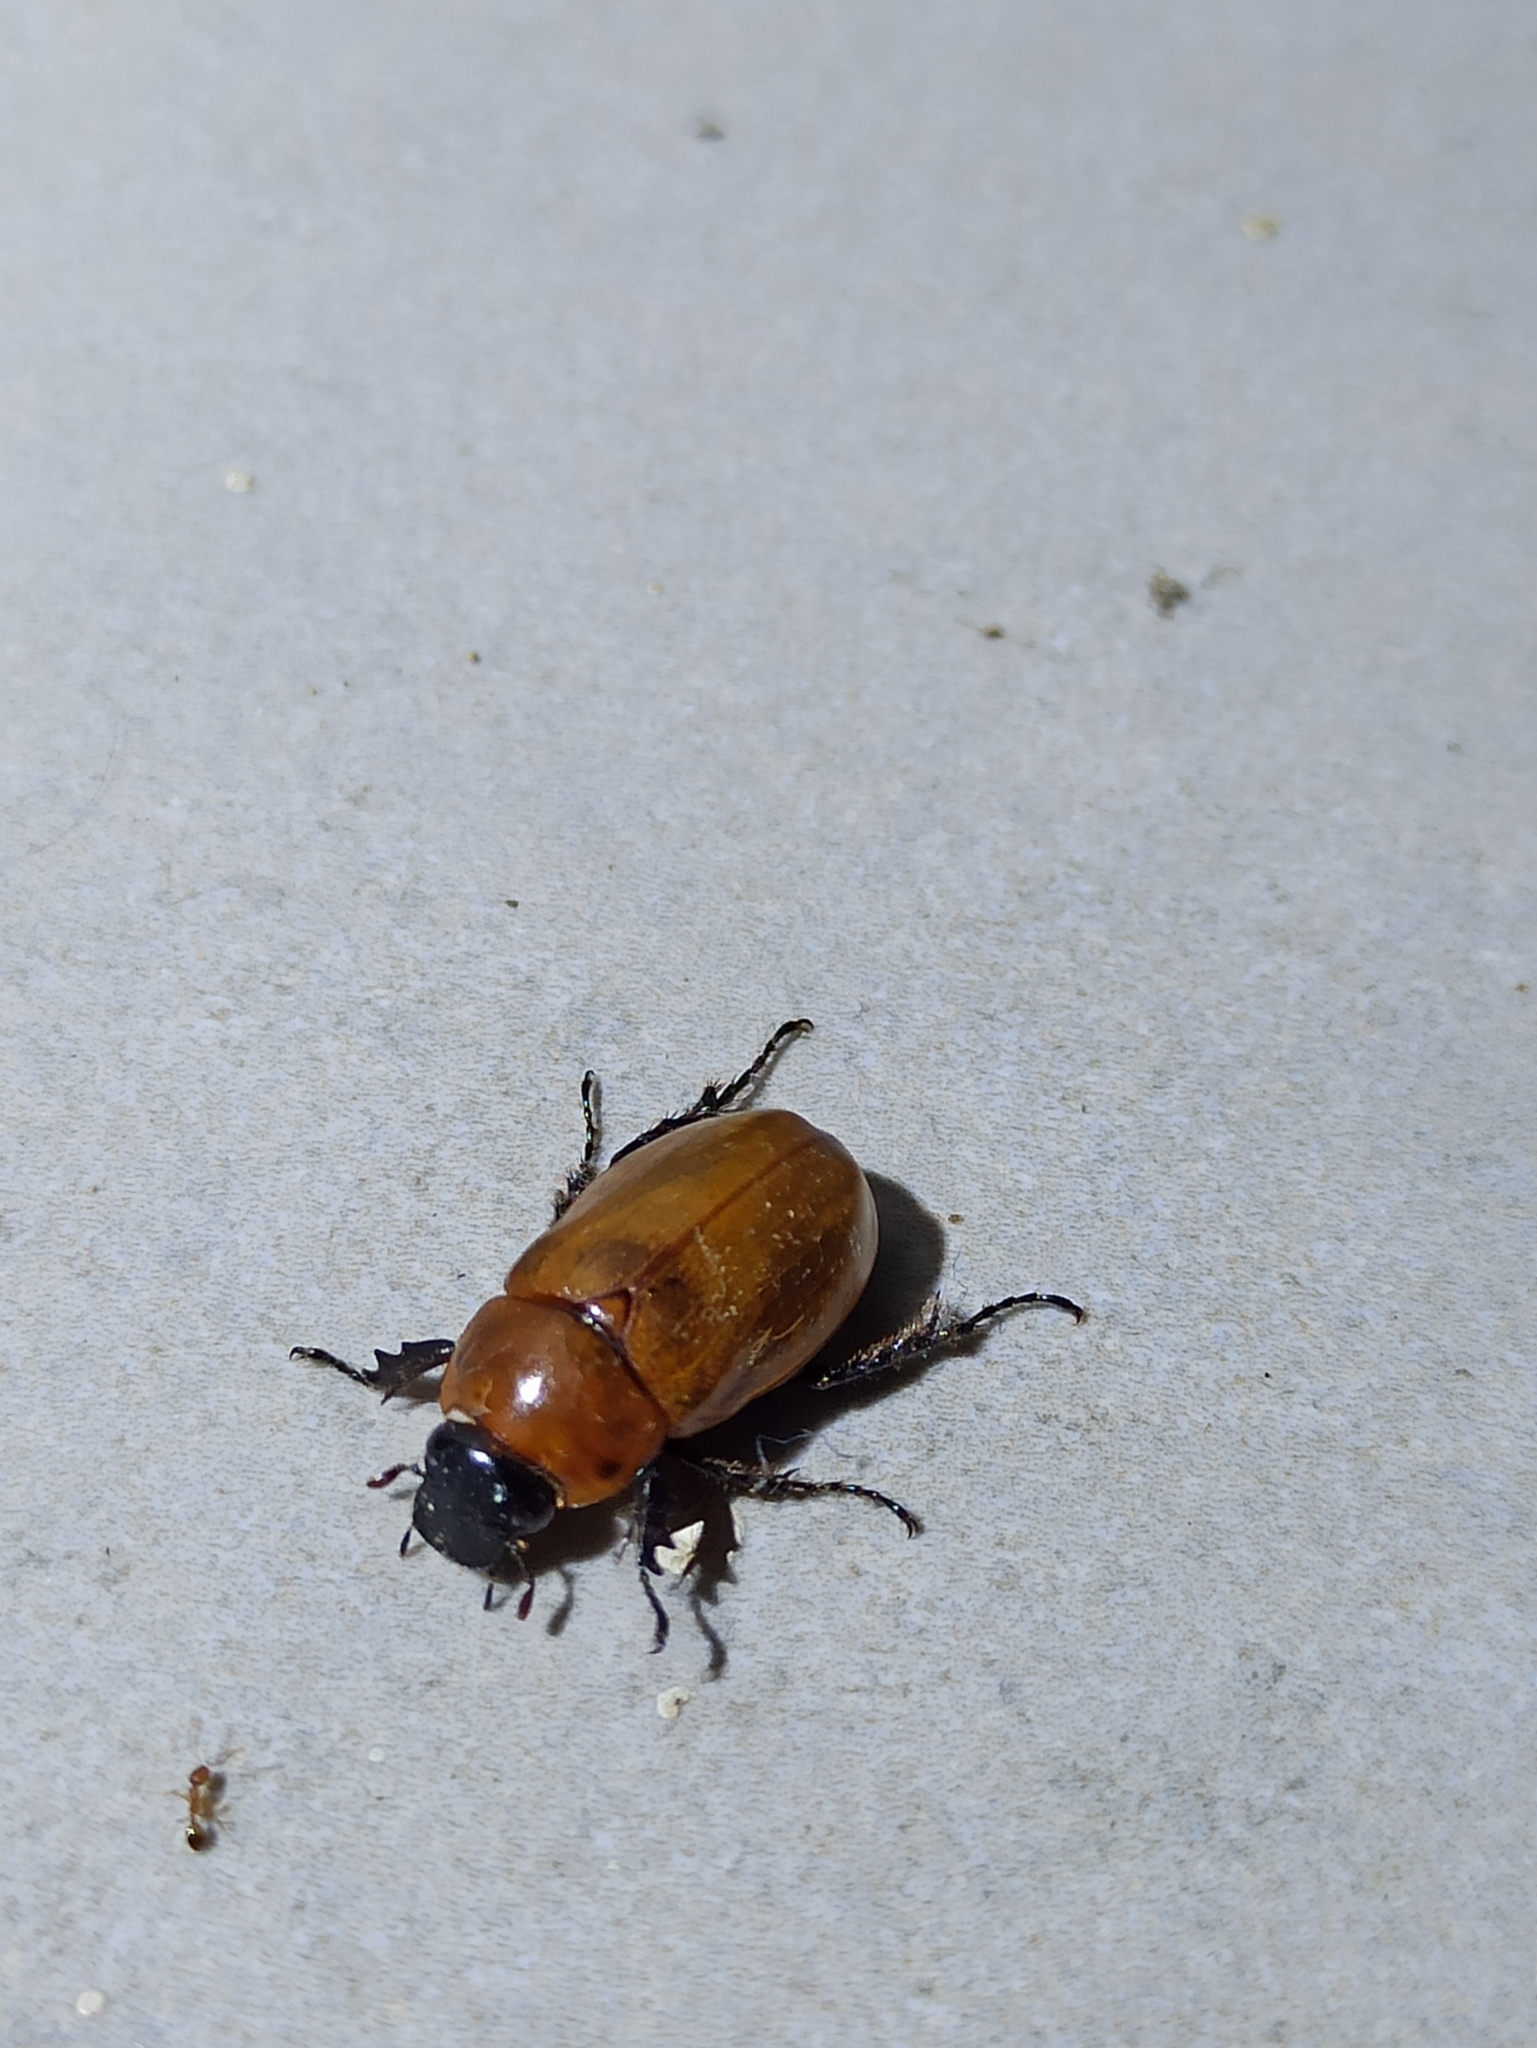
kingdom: Animalia
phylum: Arthropoda
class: Insecta
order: Coleoptera
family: Scarabaeidae
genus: Cyclocephala
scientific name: Cyclocephala lunulata
